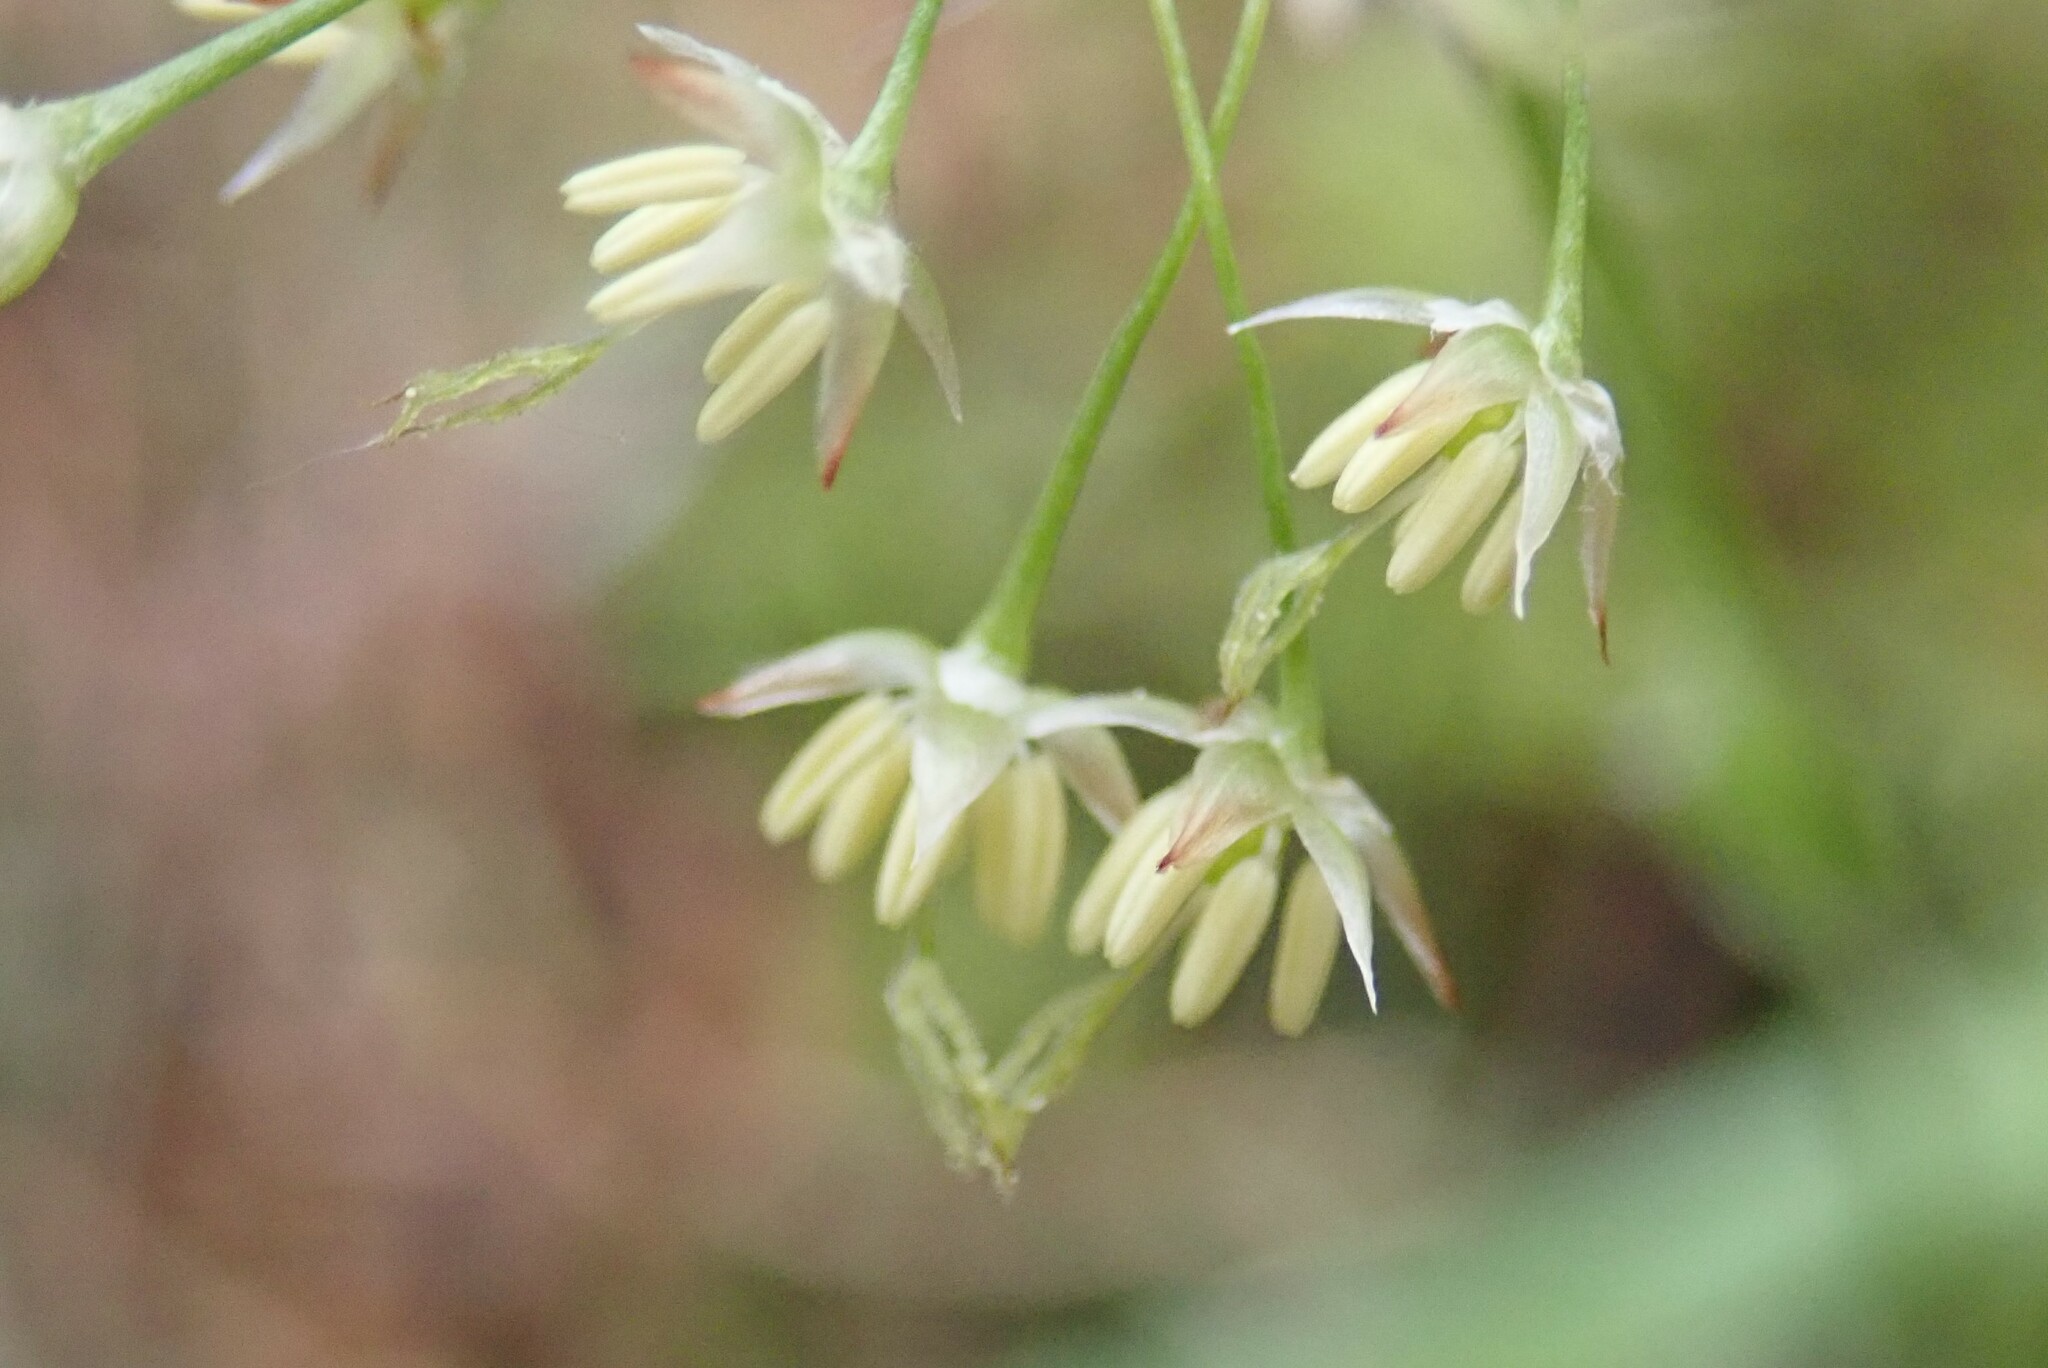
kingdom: Plantae
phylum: Tracheophyta
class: Liliopsida
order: Poales
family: Juncaceae
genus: Luzula
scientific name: Luzula acuminata
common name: Hairy woodrush
